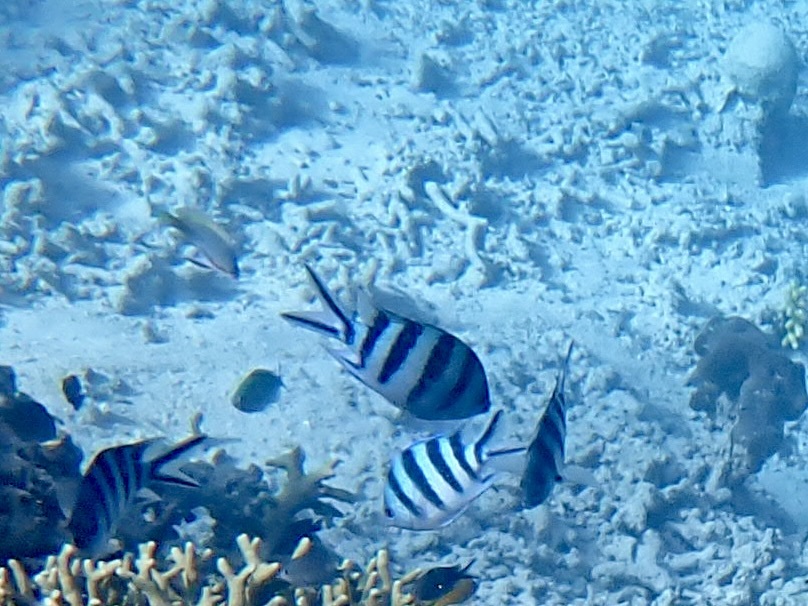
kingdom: Animalia
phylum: Chordata
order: Perciformes
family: Pomacentridae
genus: Abudefduf
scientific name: Abudefduf sexfasciatus
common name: Scissortail sergeant
